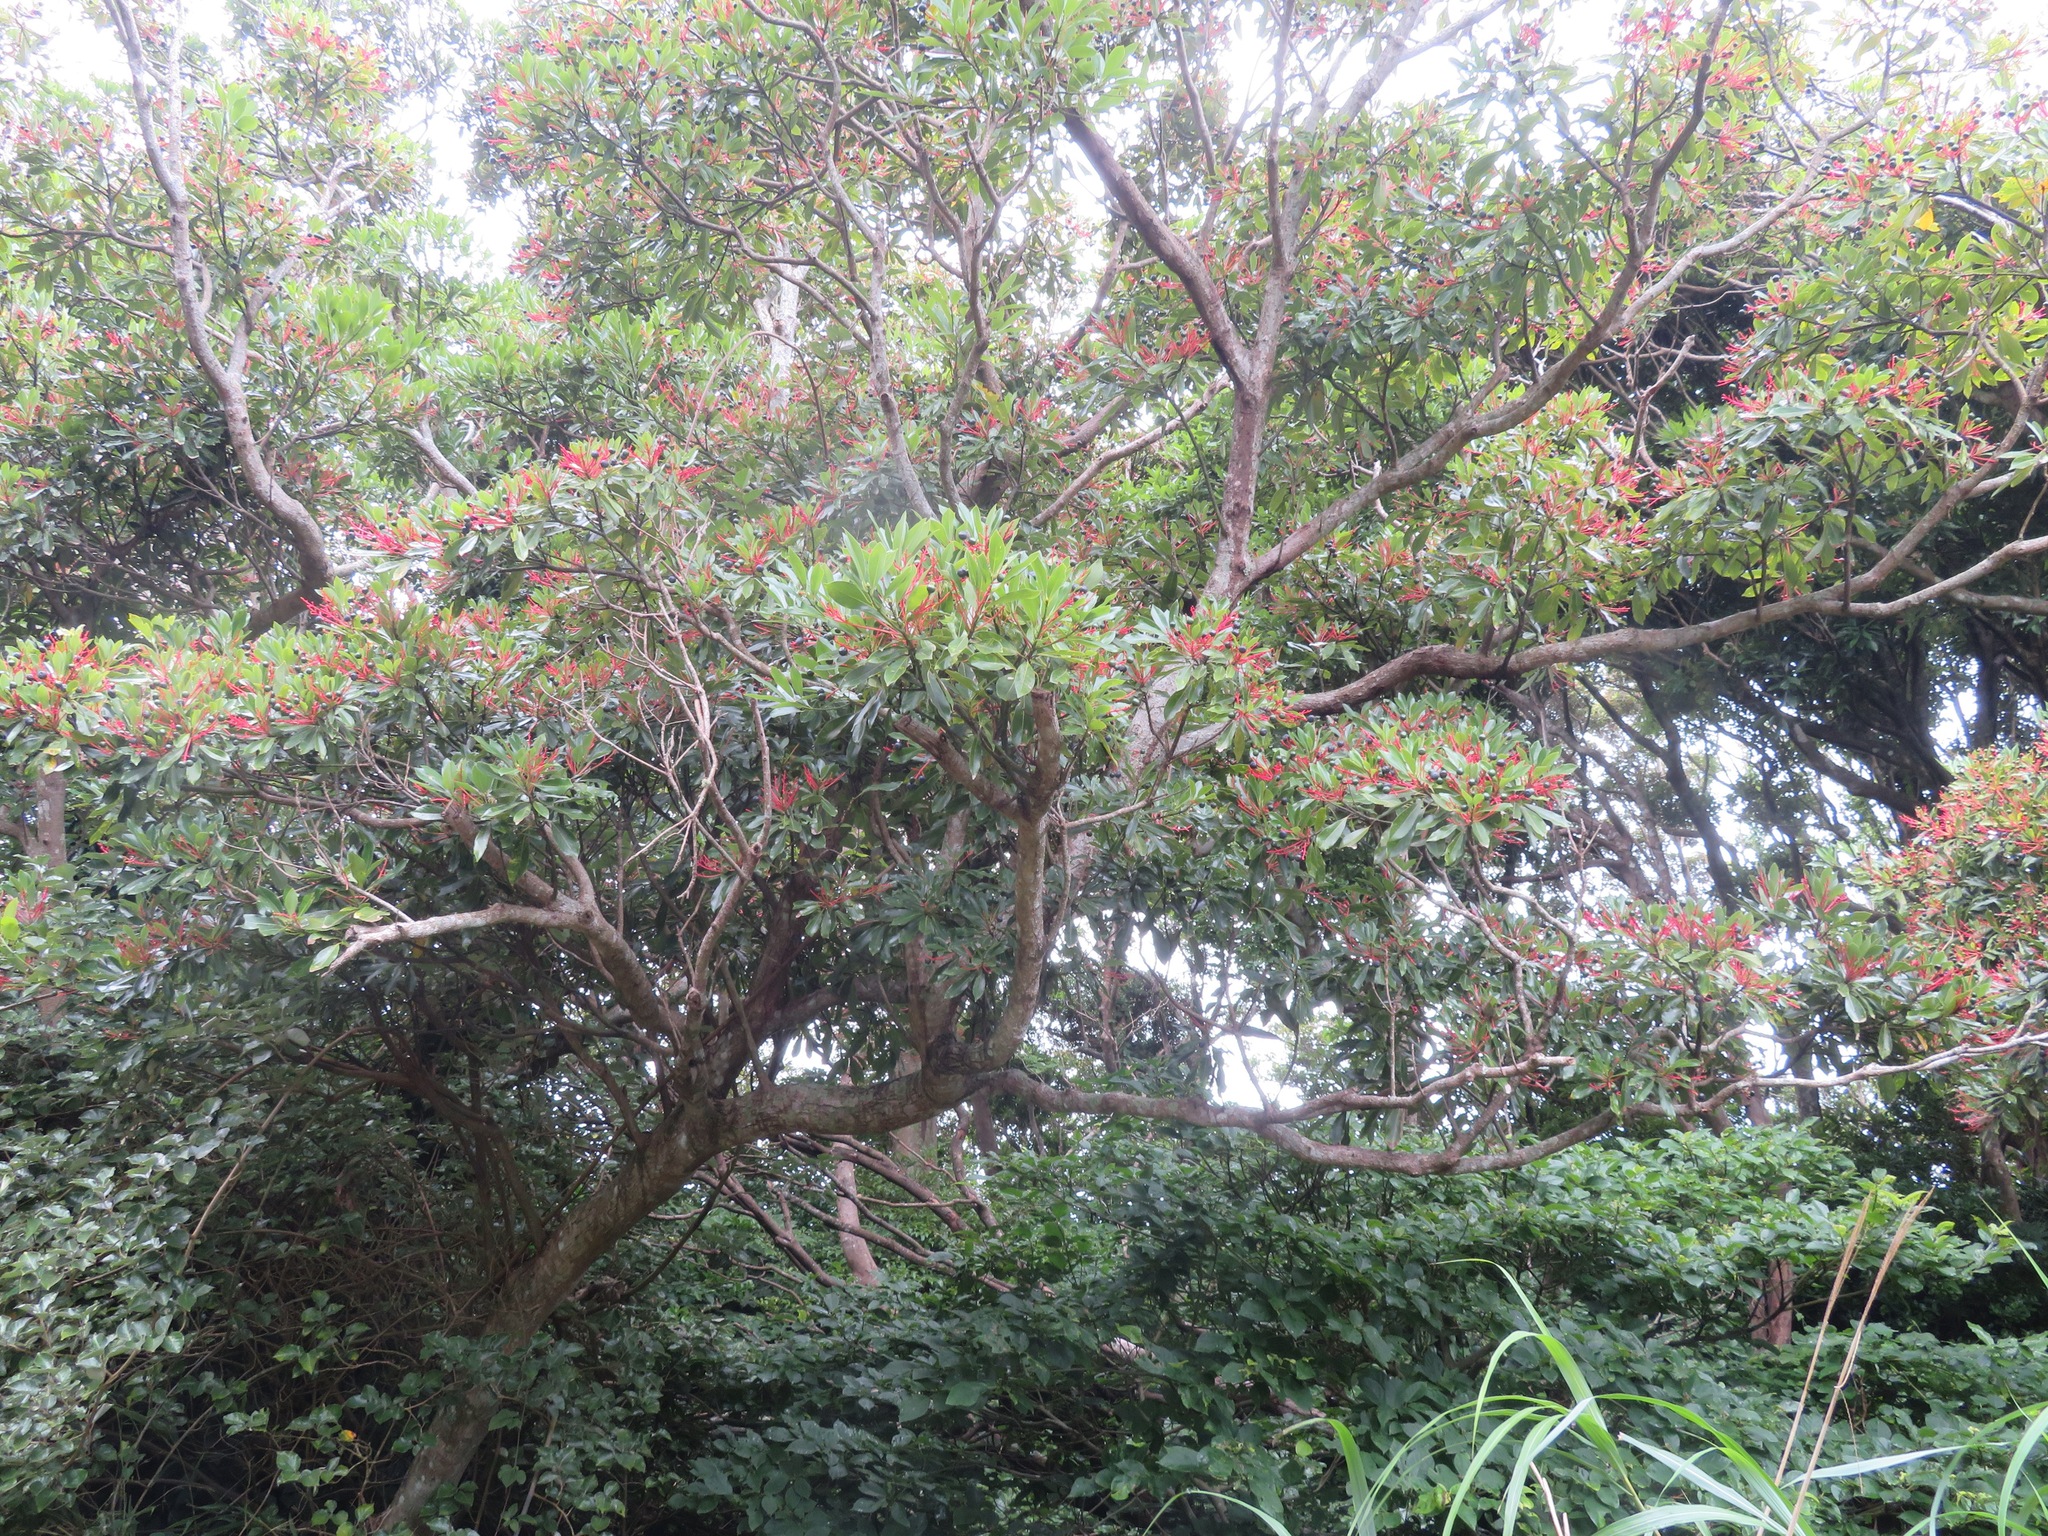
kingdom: Plantae
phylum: Tracheophyta
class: Magnoliopsida
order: Laurales
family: Lauraceae
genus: Machilus
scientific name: Machilus thunbergii
